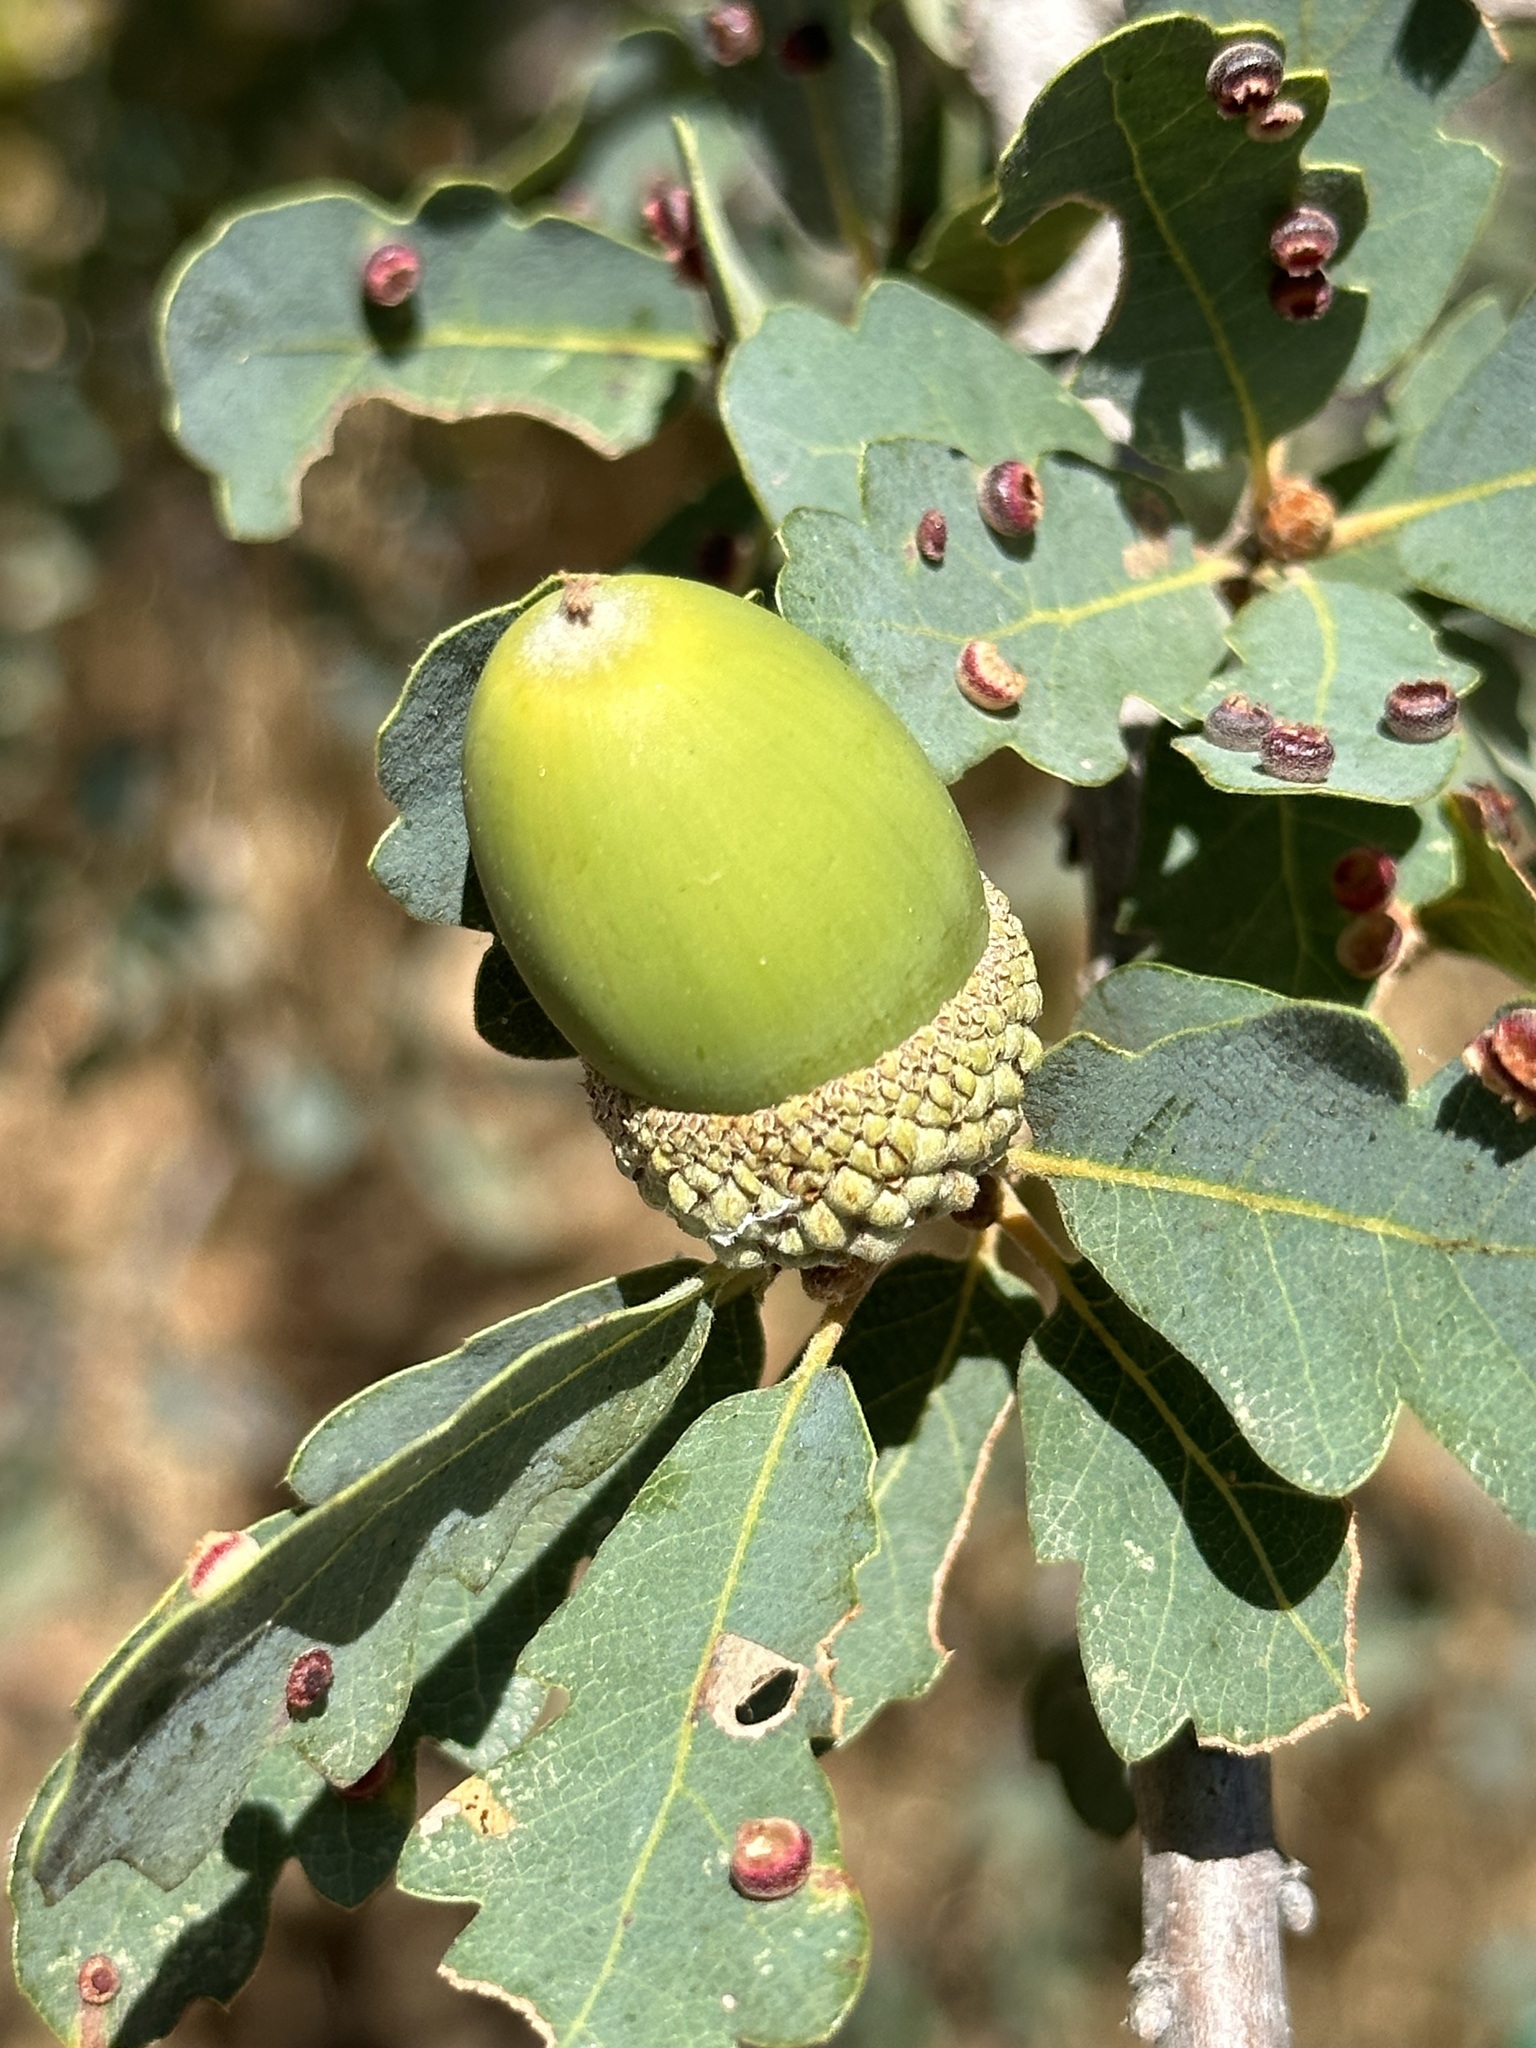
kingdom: Plantae
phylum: Tracheophyta
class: Magnoliopsida
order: Fagales
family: Fagaceae
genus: Quercus
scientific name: Quercus douglasii
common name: Blue oak
